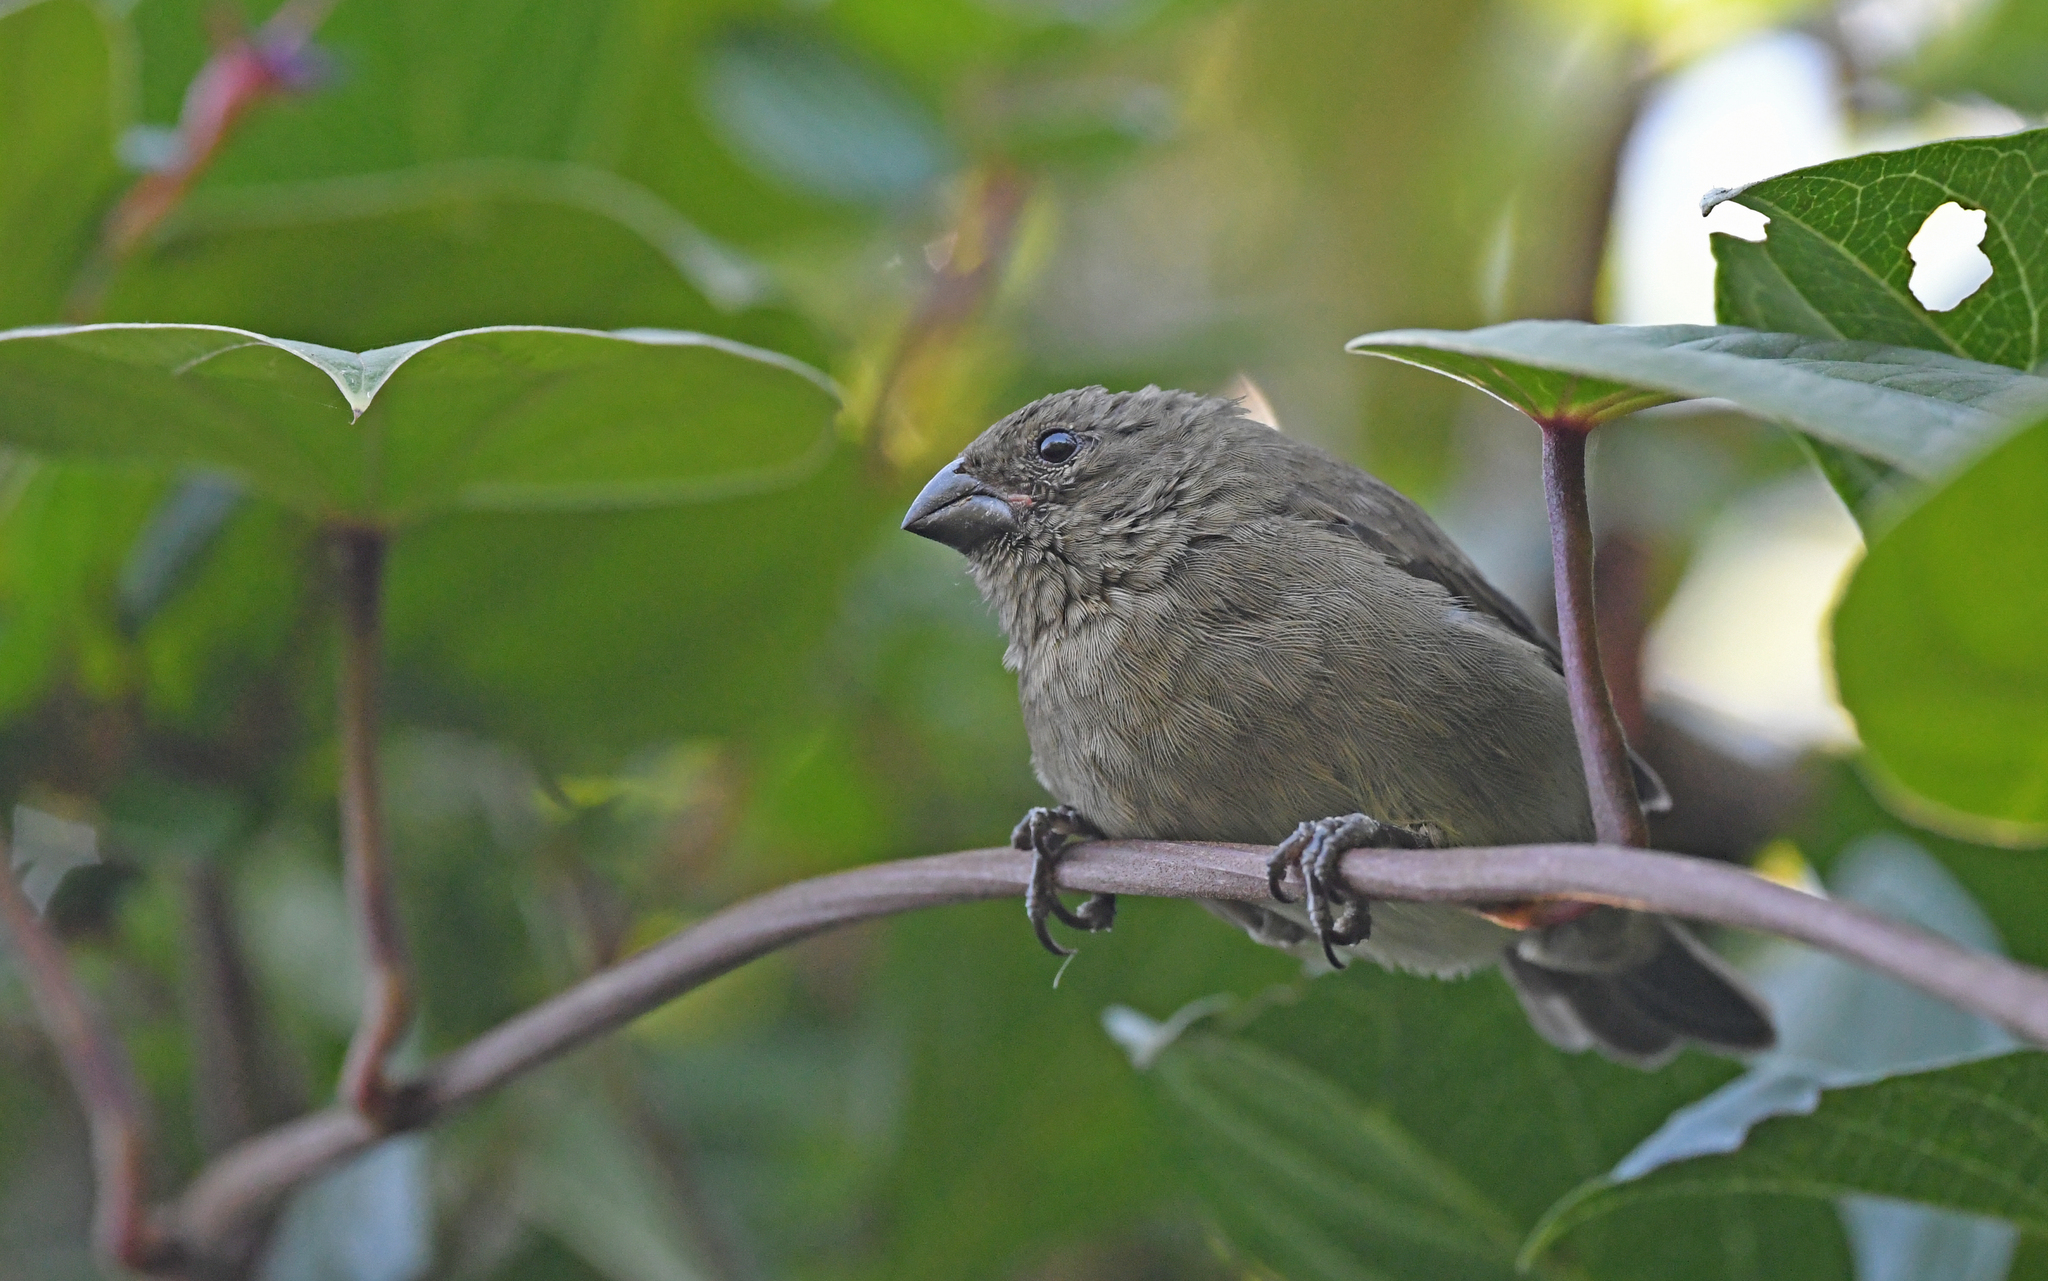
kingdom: Animalia
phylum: Chordata
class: Aves
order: Passeriformes
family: Thraupidae
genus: Asemospiza
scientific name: Asemospiza fuliginosa
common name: Sooty grassquit
